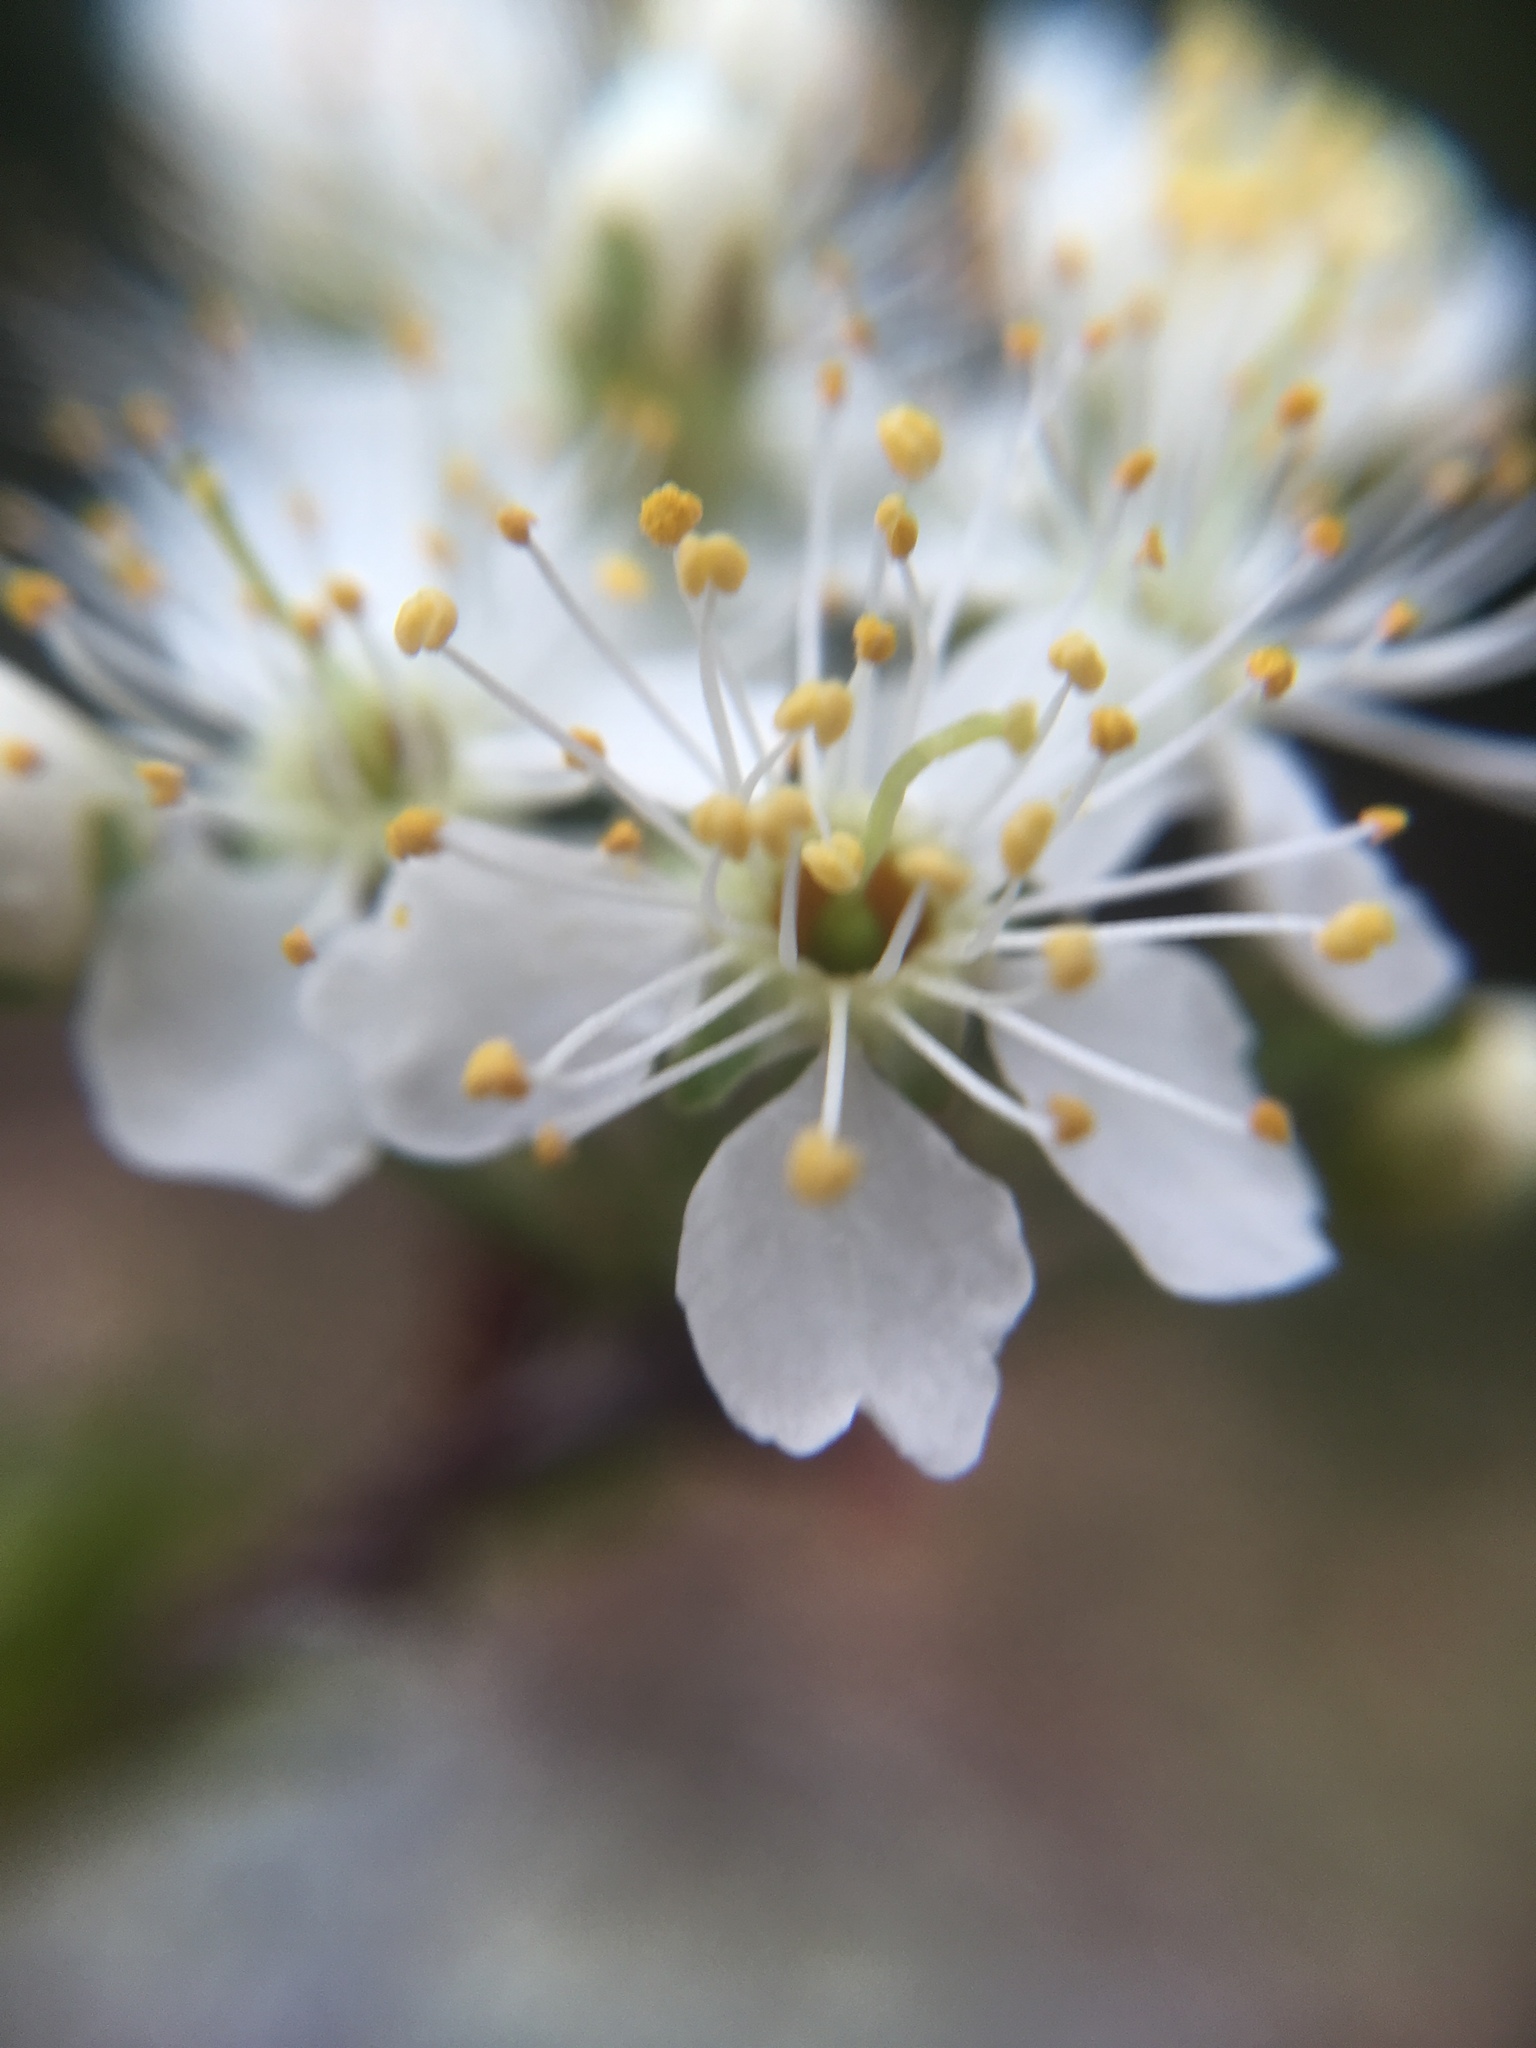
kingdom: Plantae
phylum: Tracheophyta
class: Magnoliopsida
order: Rosales
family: Rosaceae
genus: Prunus
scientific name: Prunus pensylvanica
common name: Pin cherry
